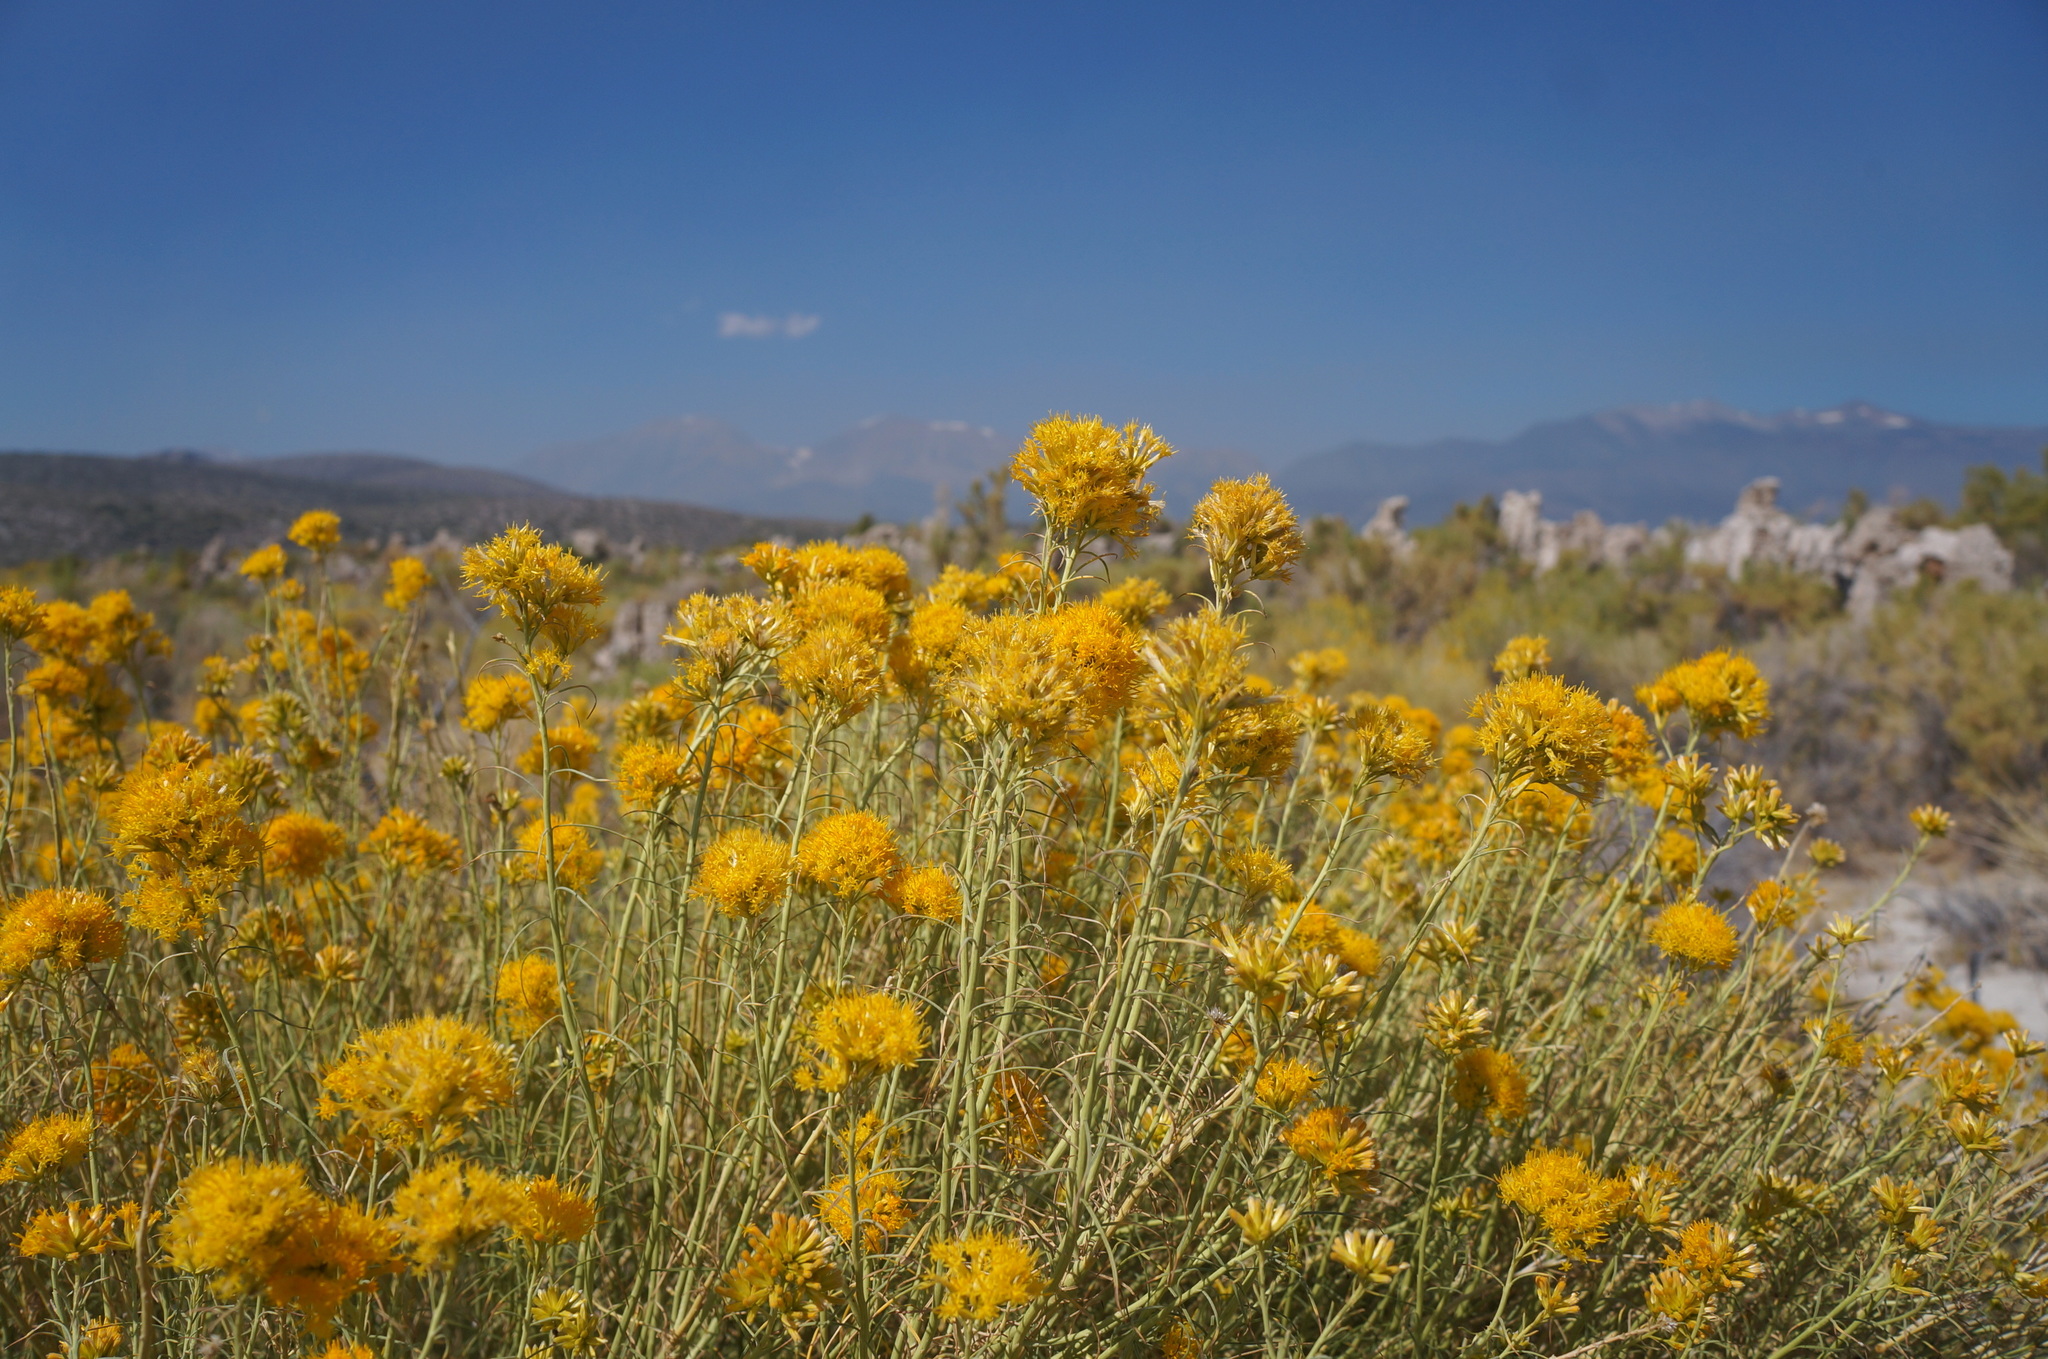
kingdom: Plantae
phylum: Tracheophyta
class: Magnoliopsida
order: Asterales
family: Asteraceae
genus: Ericameria
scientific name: Ericameria nauseosa
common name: Rubber rabbitbrush
